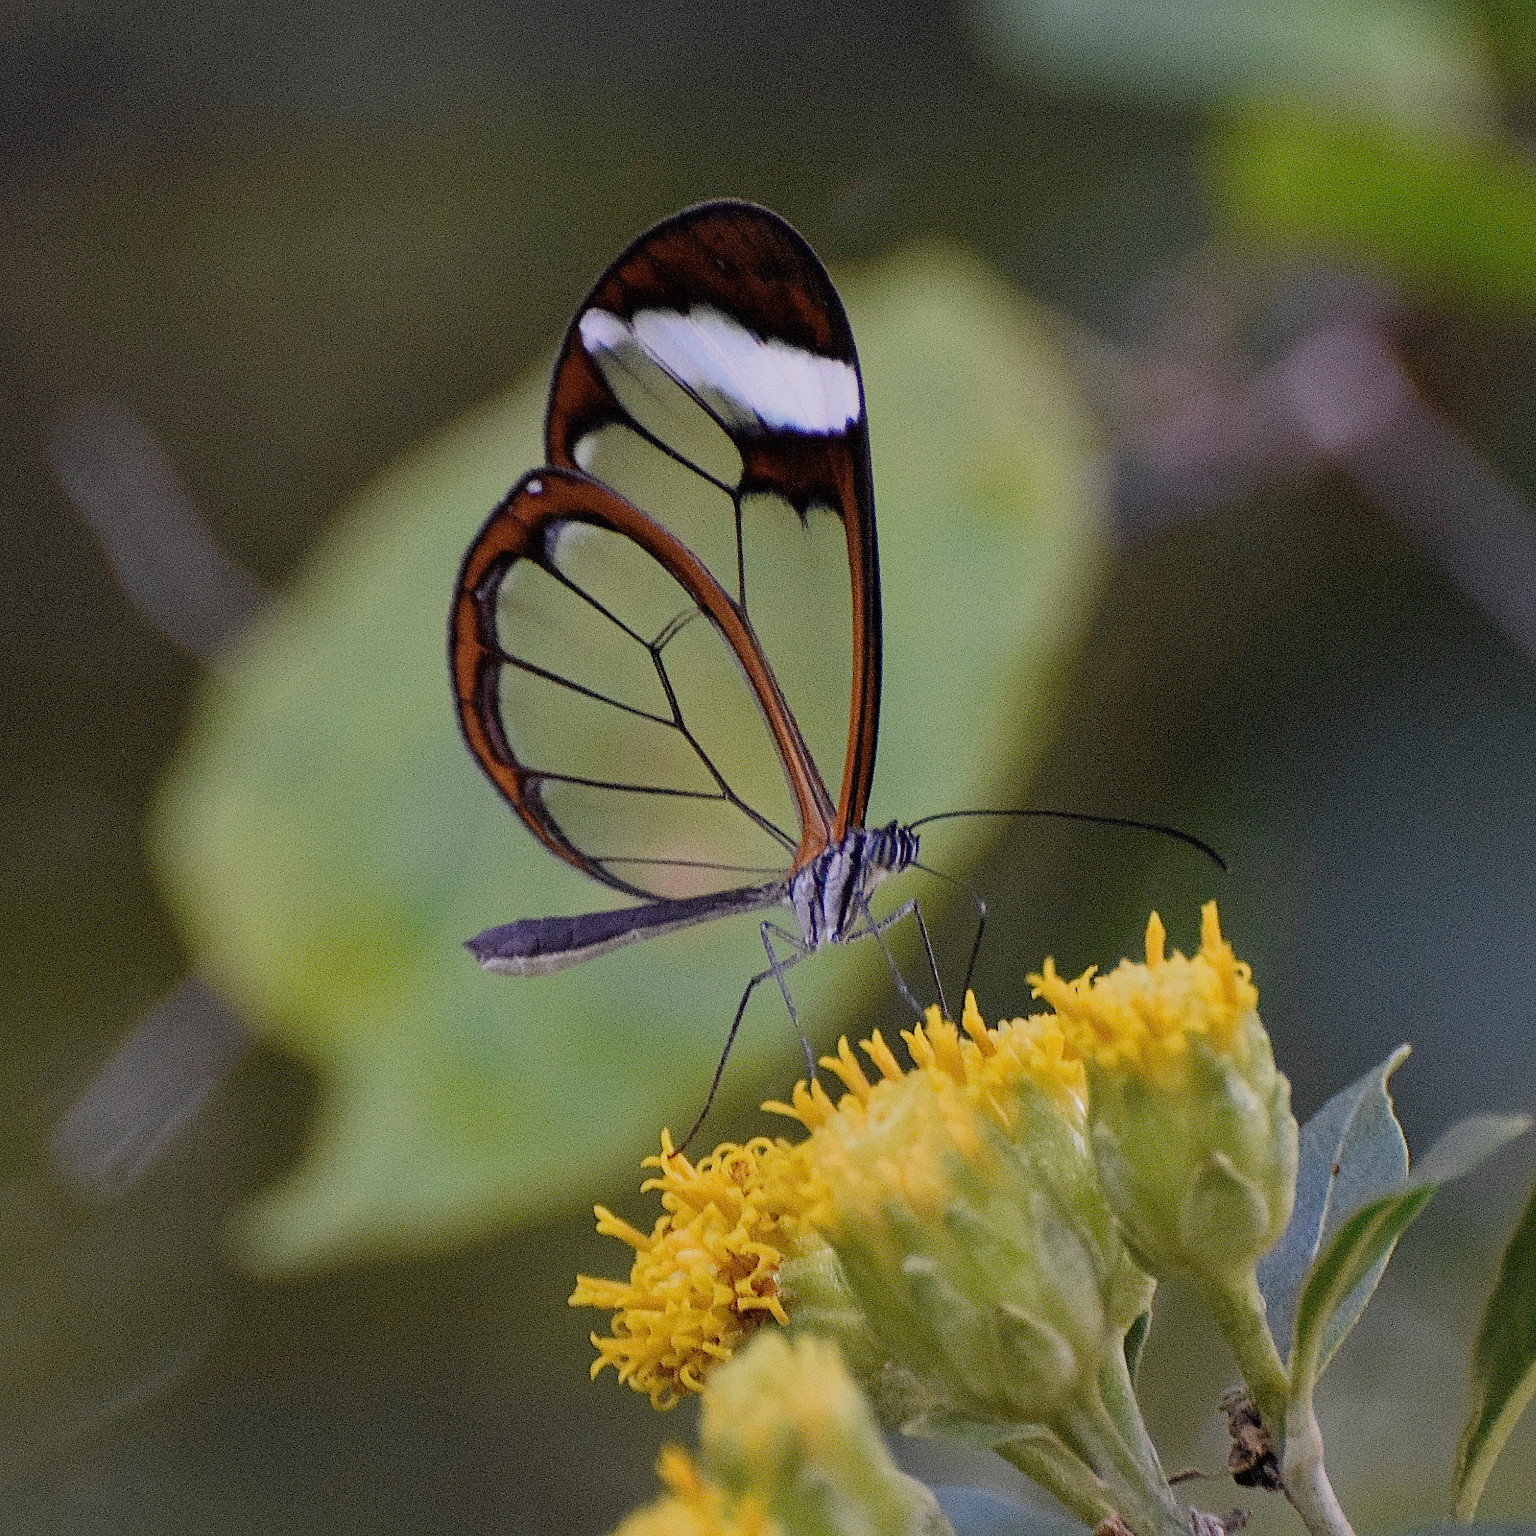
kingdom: Animalia
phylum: Arthropoda
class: Insecta
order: Lepidoptera
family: Nymphalidae
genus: Greta
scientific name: Greta morgane
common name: Thick-tipped greta
